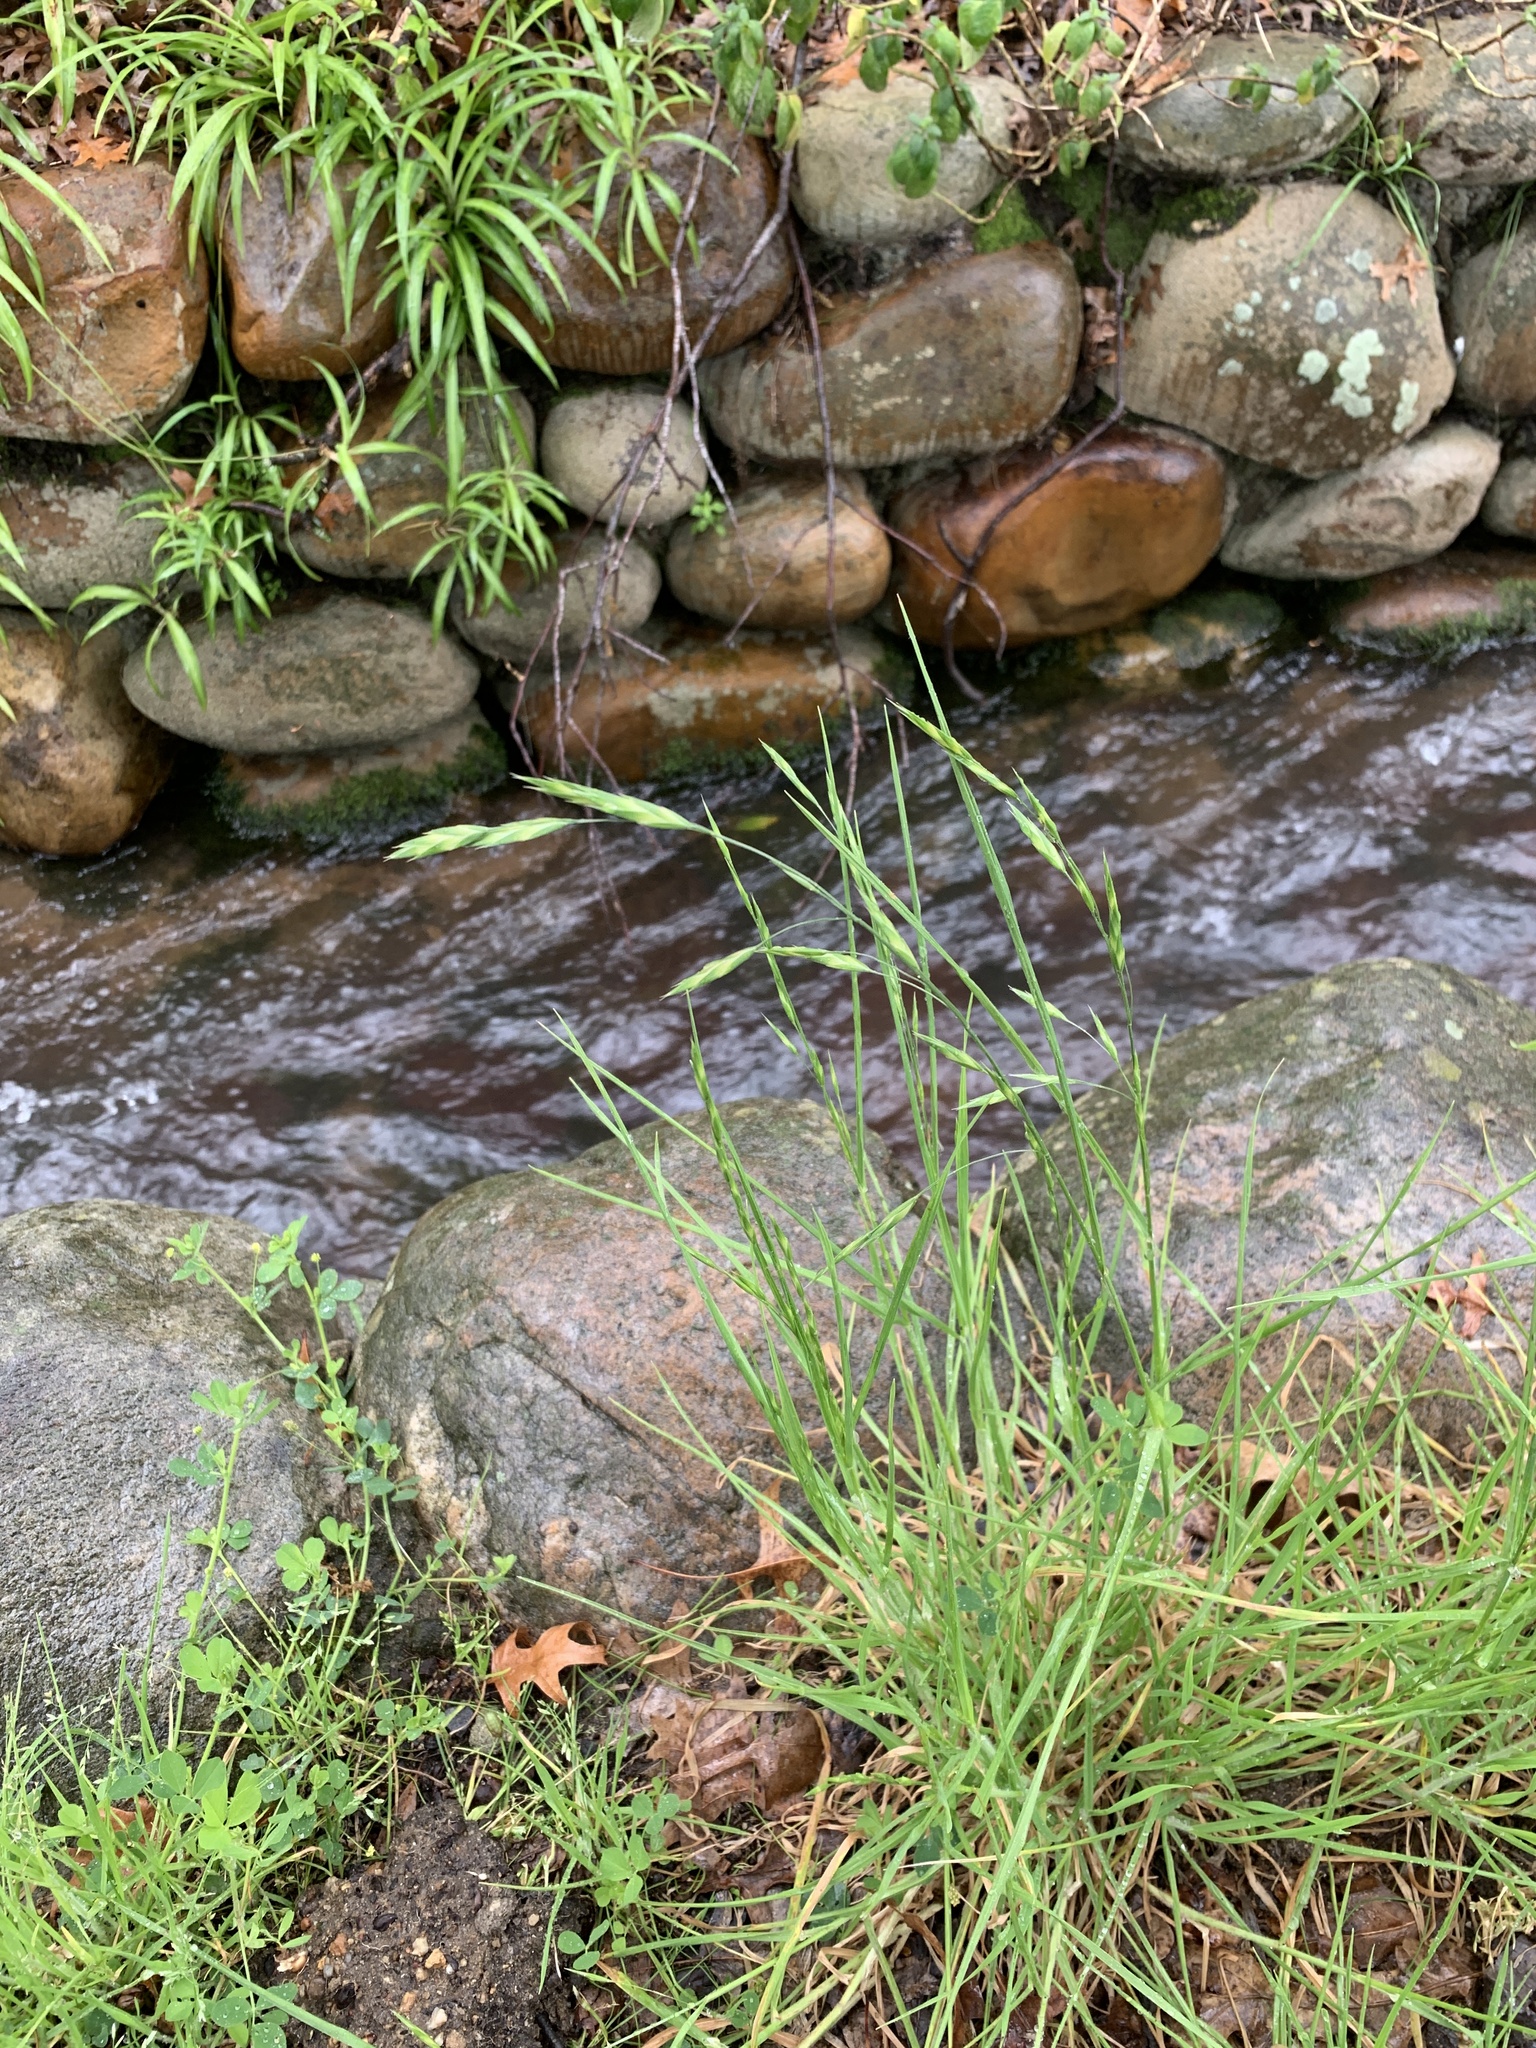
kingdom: Plantae
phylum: Tracheophyta
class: Liliopsida
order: Poales
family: Poaceae
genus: Bromus
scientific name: Bromus catharticus
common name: Rescuegrass
